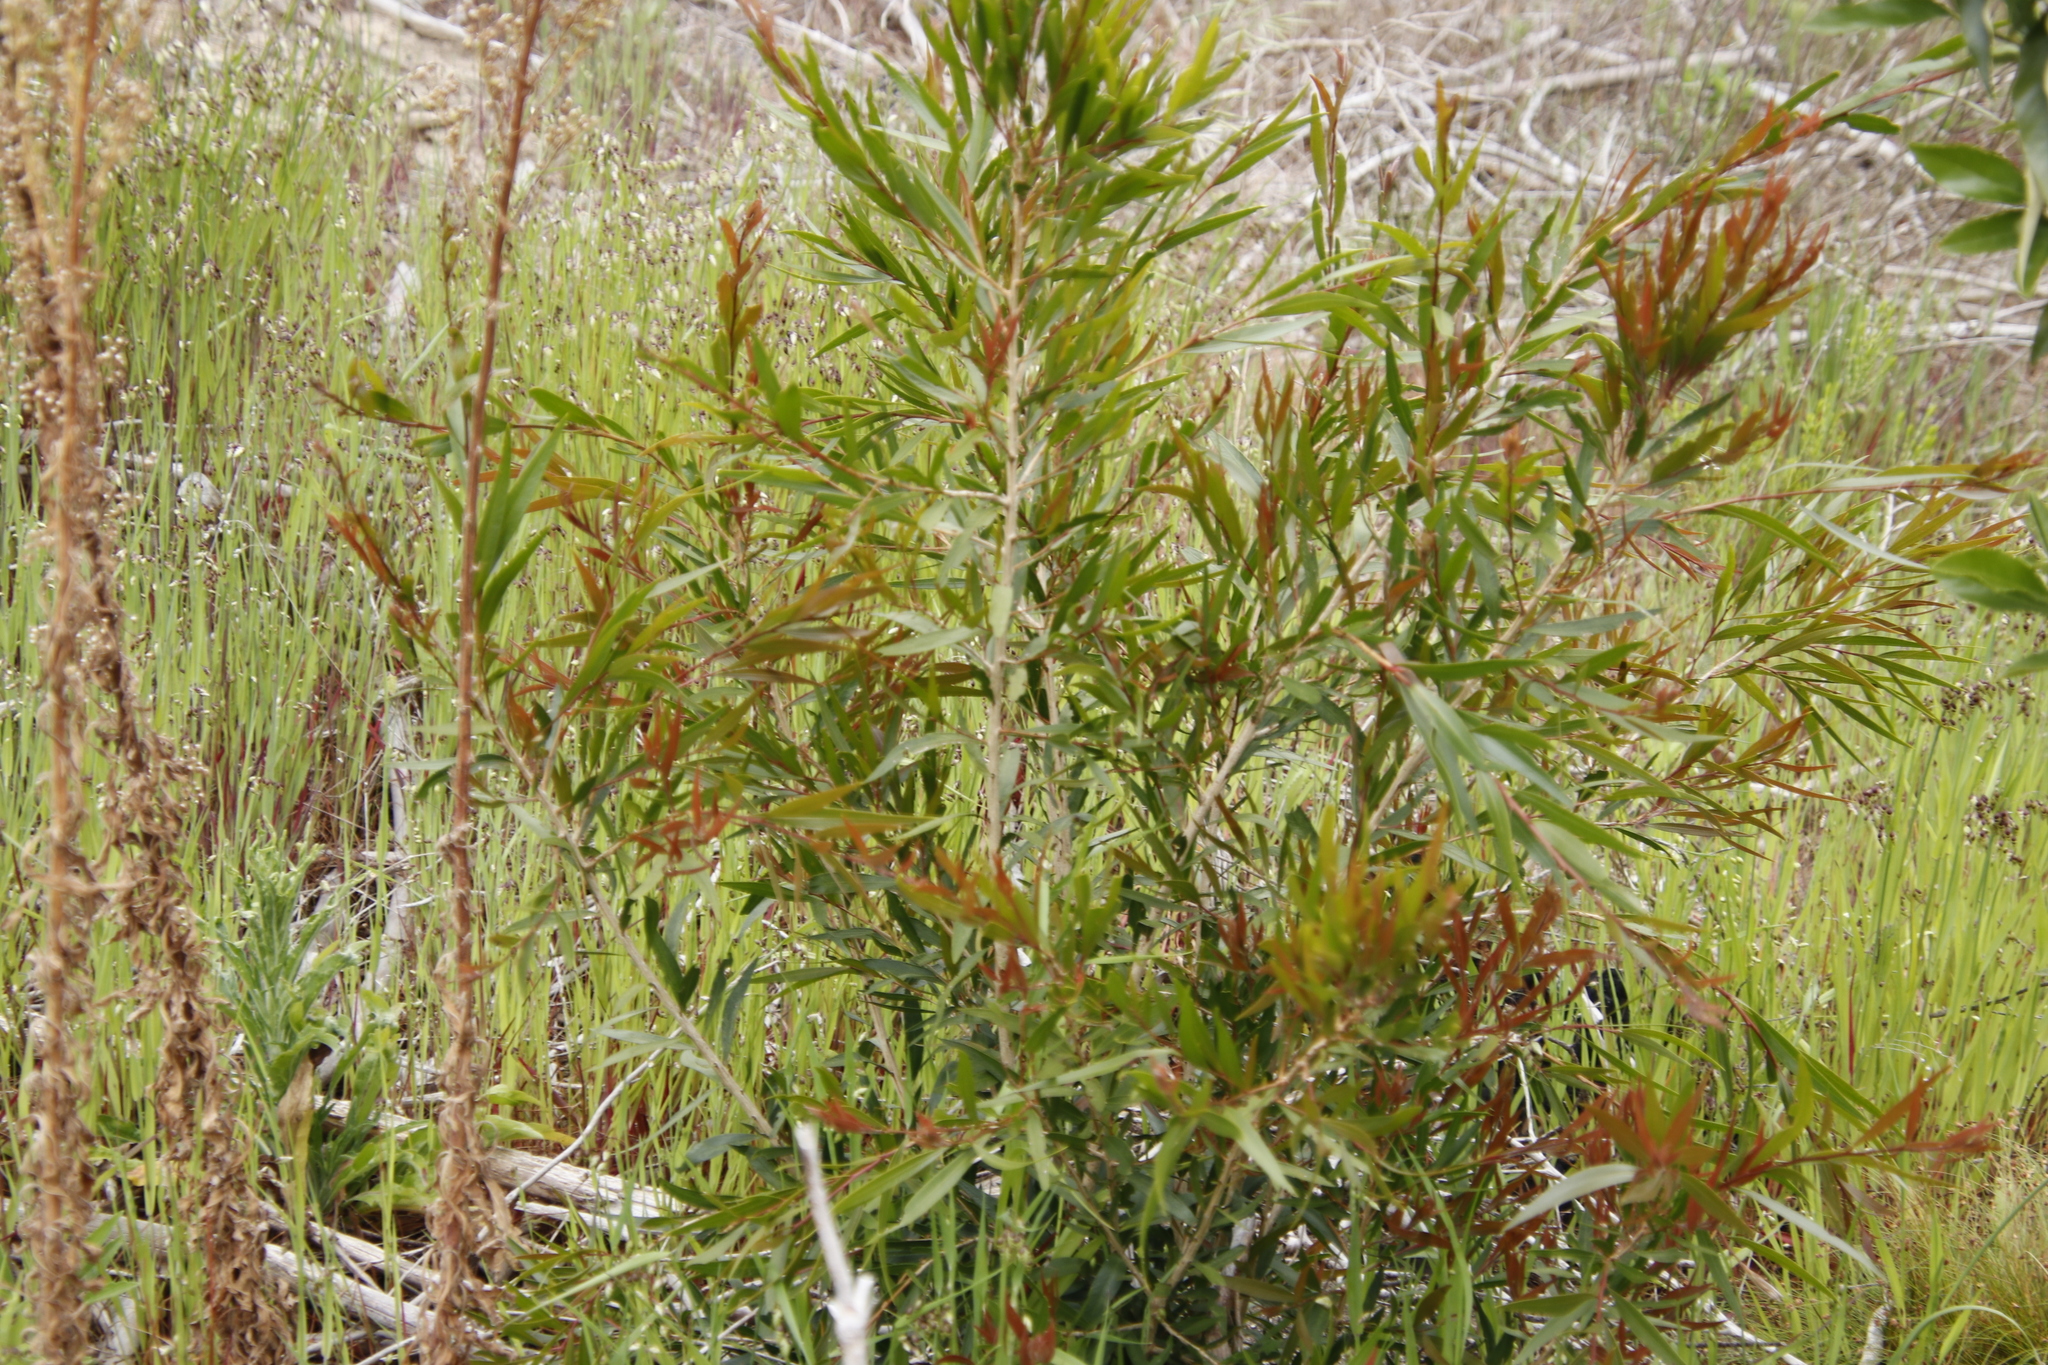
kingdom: Plantae
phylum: Tracheophyta
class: Magnoliopsida
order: Myrtales
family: Myrtaceae
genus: Callistemon
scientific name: Callistemon salignus
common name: White bottlebrush
